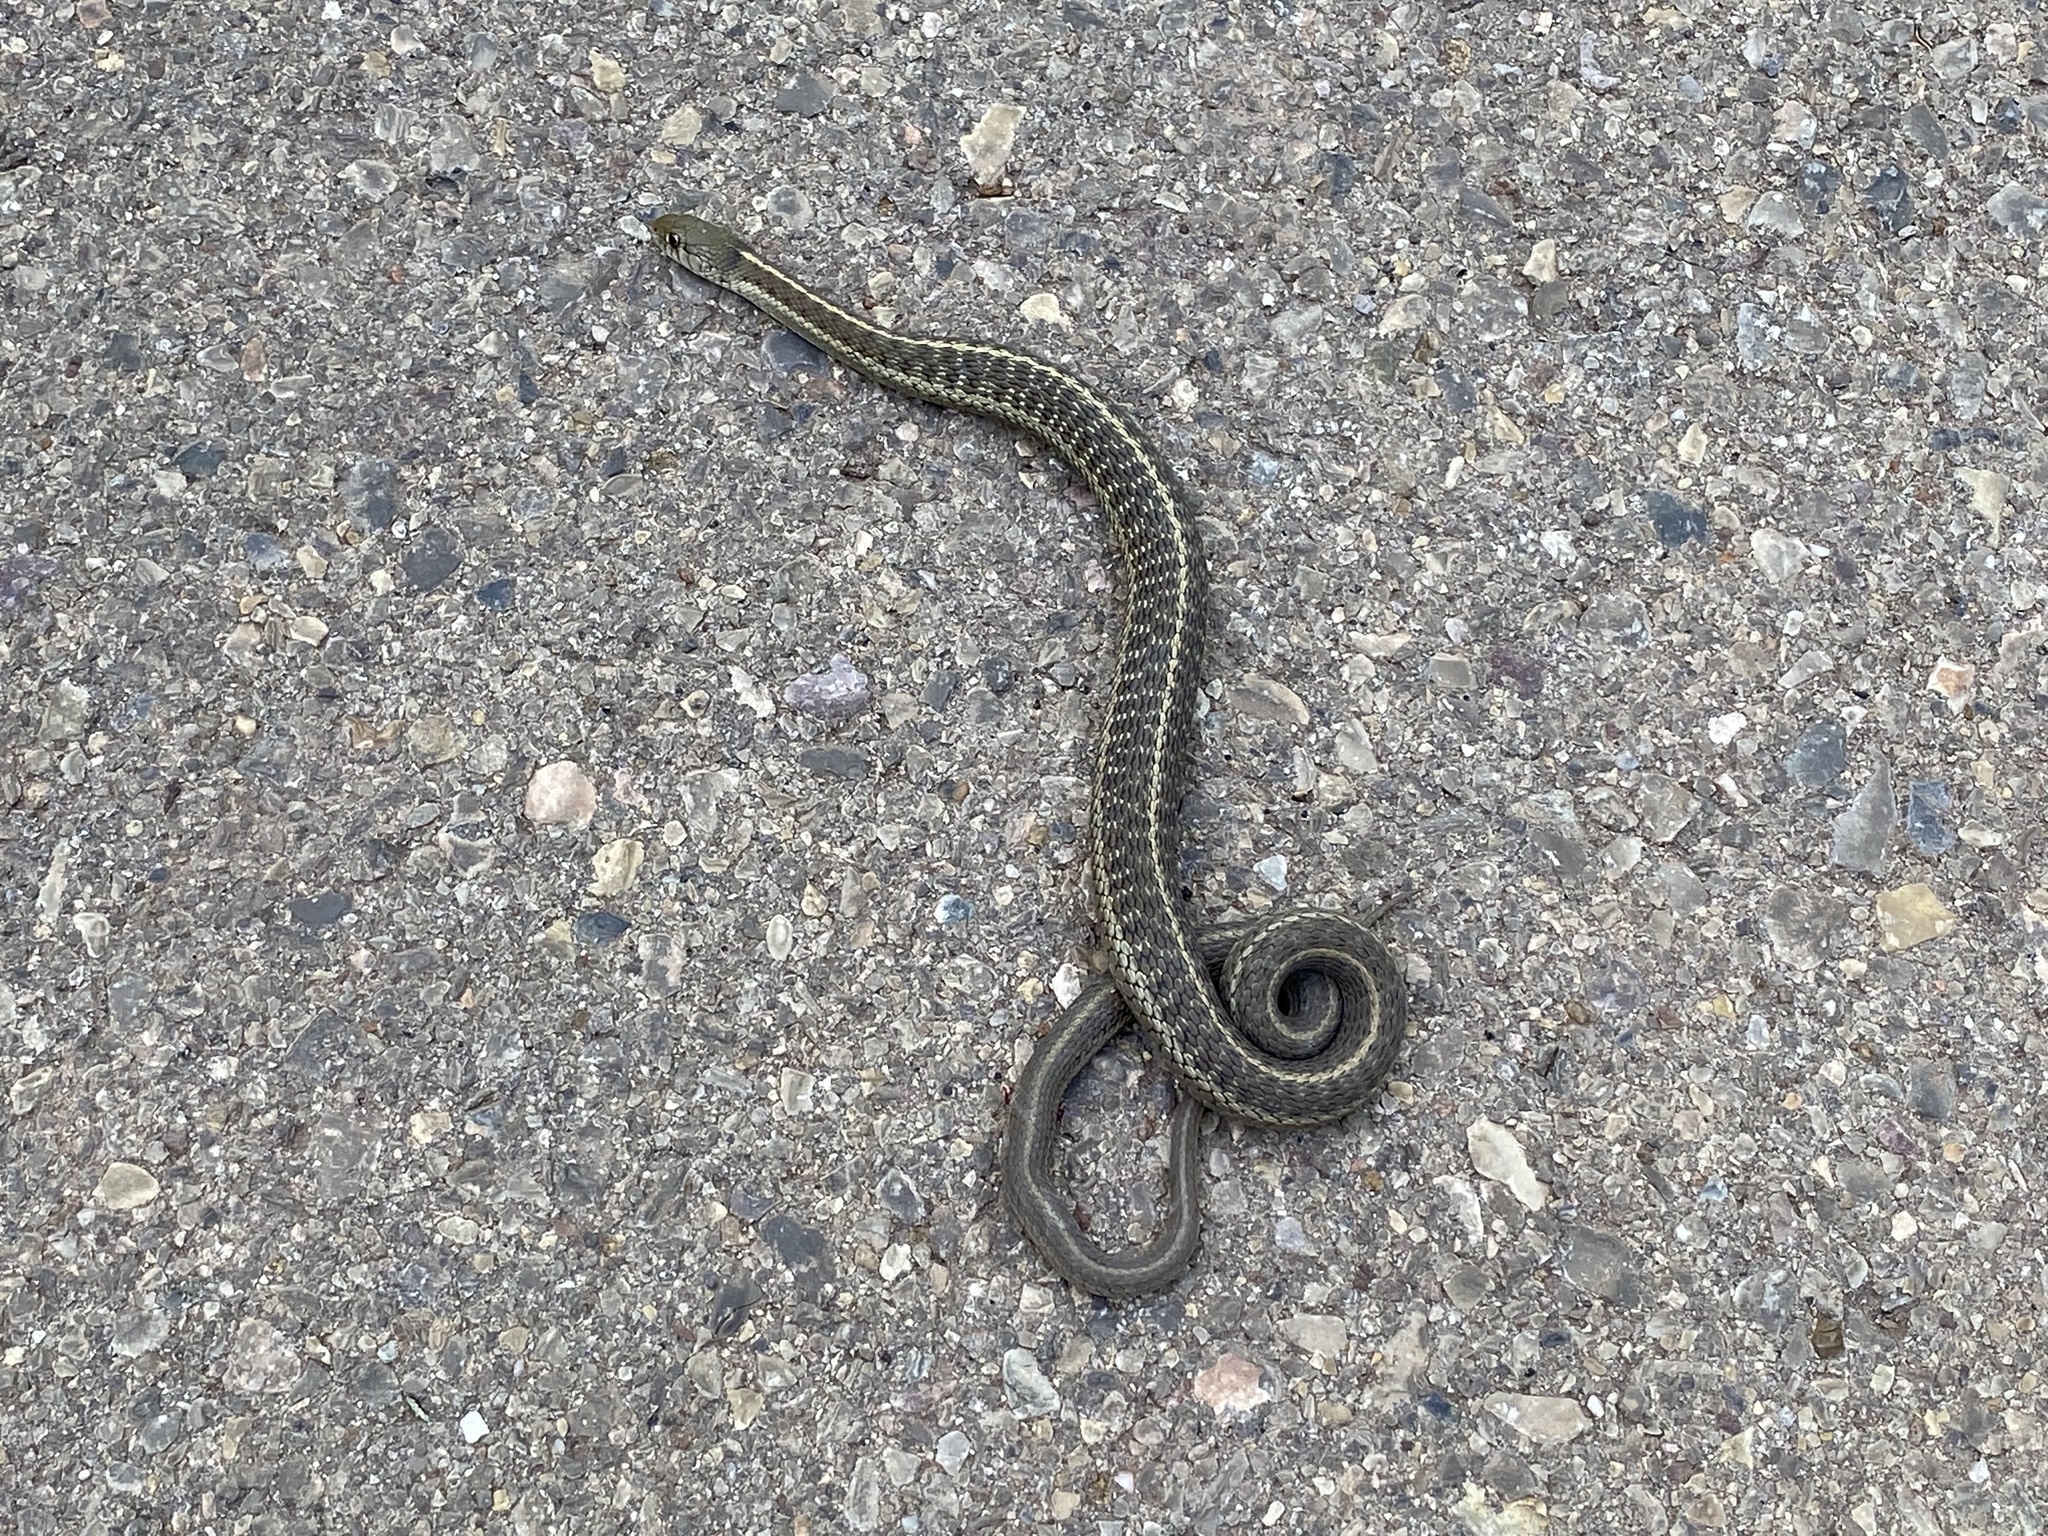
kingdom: Animalia
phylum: Chordata
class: Squamata
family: Colubridae
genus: Thamnophis
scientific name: Thamnophis elegans
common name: Western terrestrial garter snake
